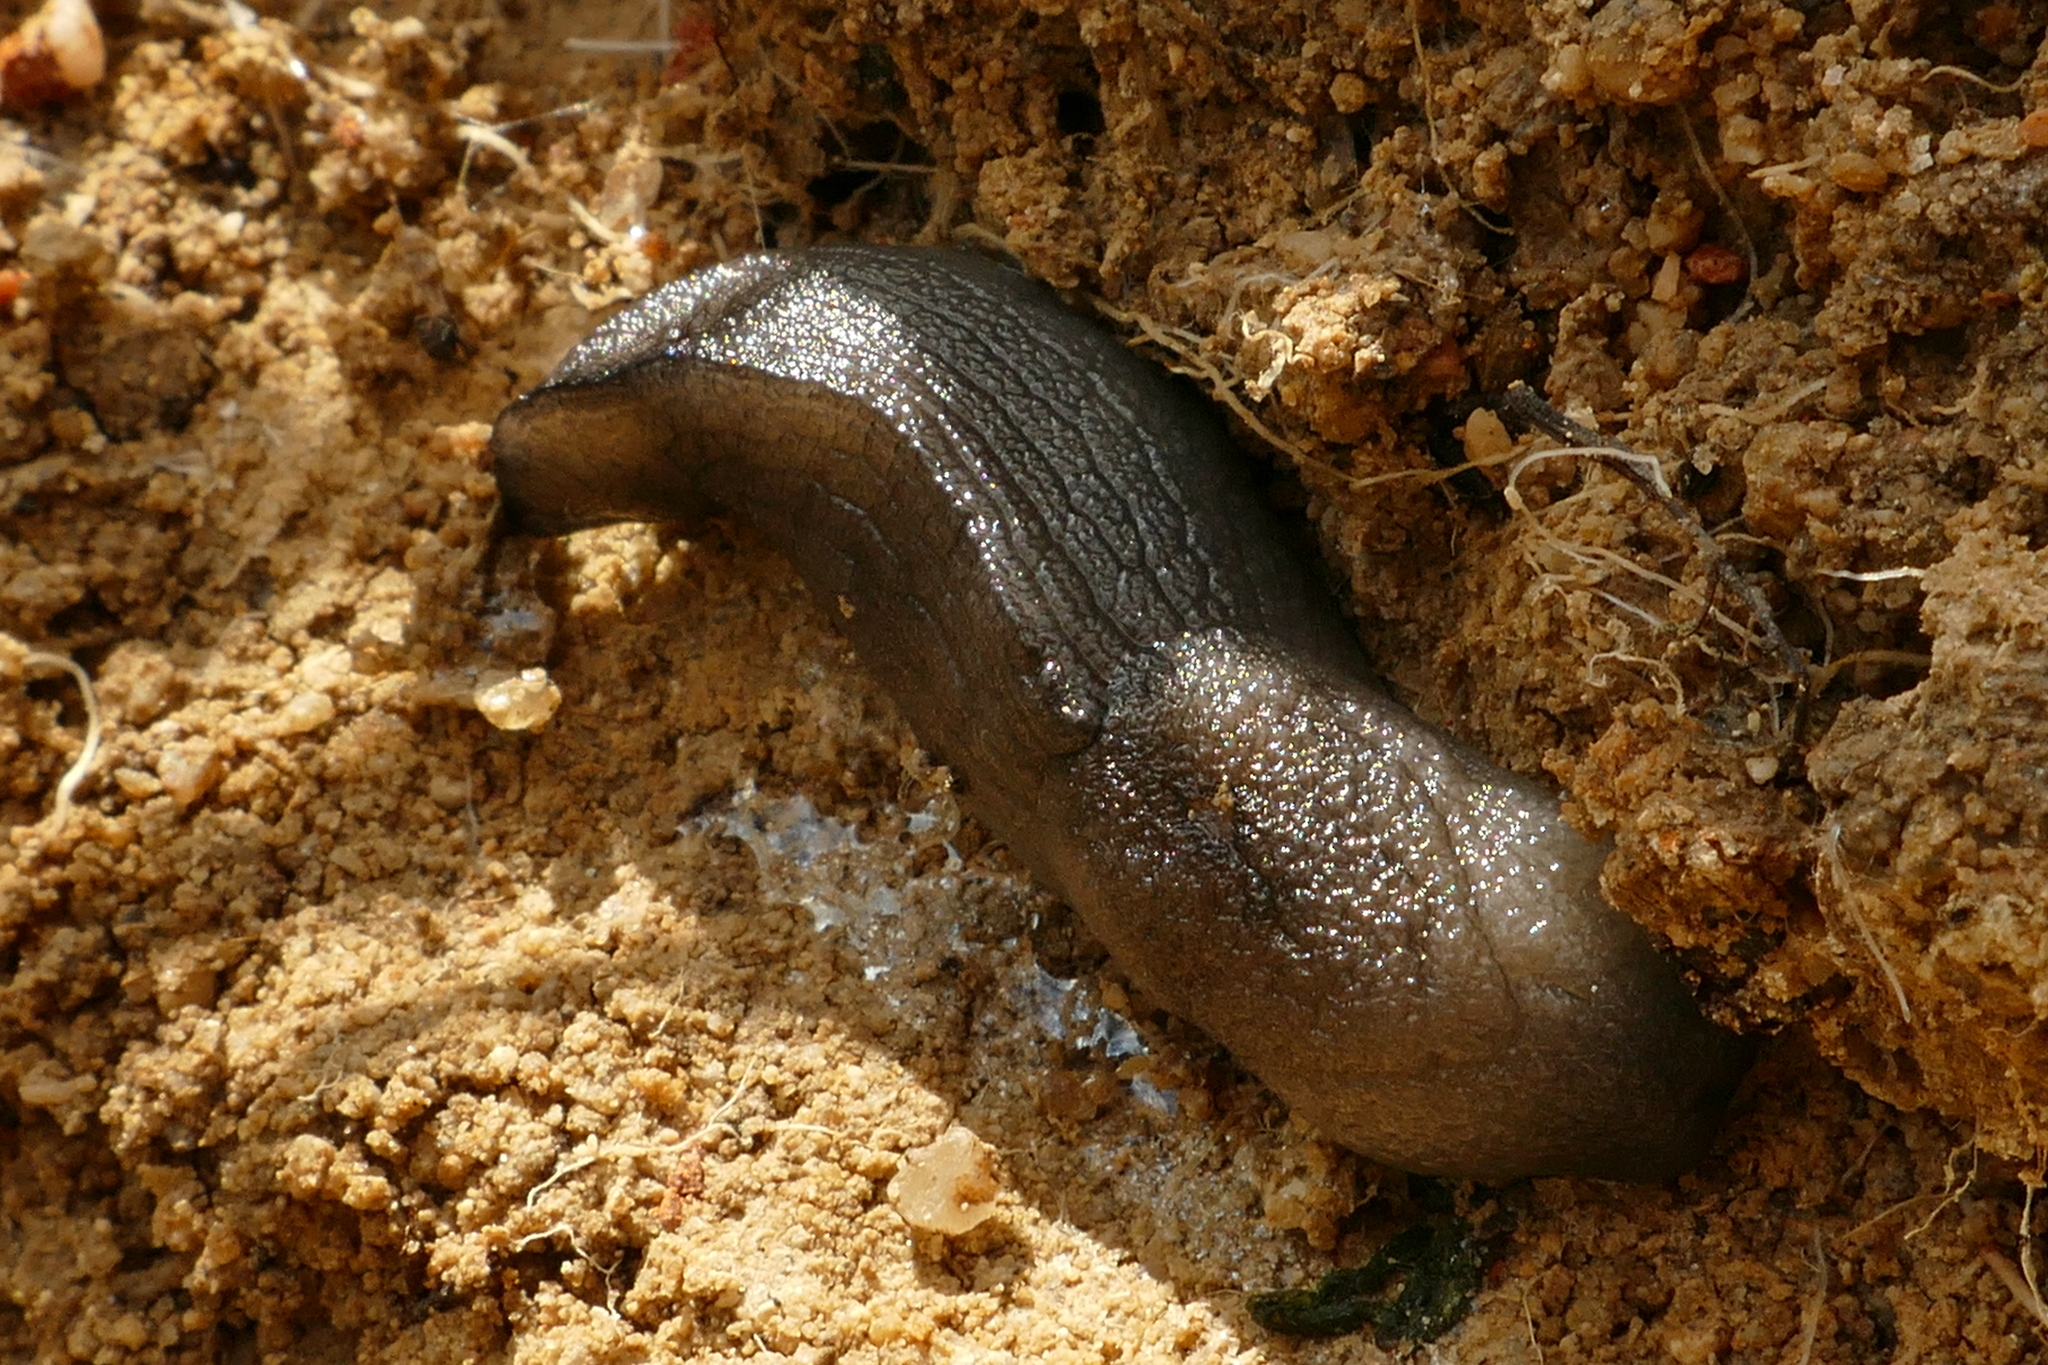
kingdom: Animalia
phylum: Mollusca
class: Gastropoda
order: Stylommatophora
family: Milacidae
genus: Milax
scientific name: Milax gagates
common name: Greenhouse slug
